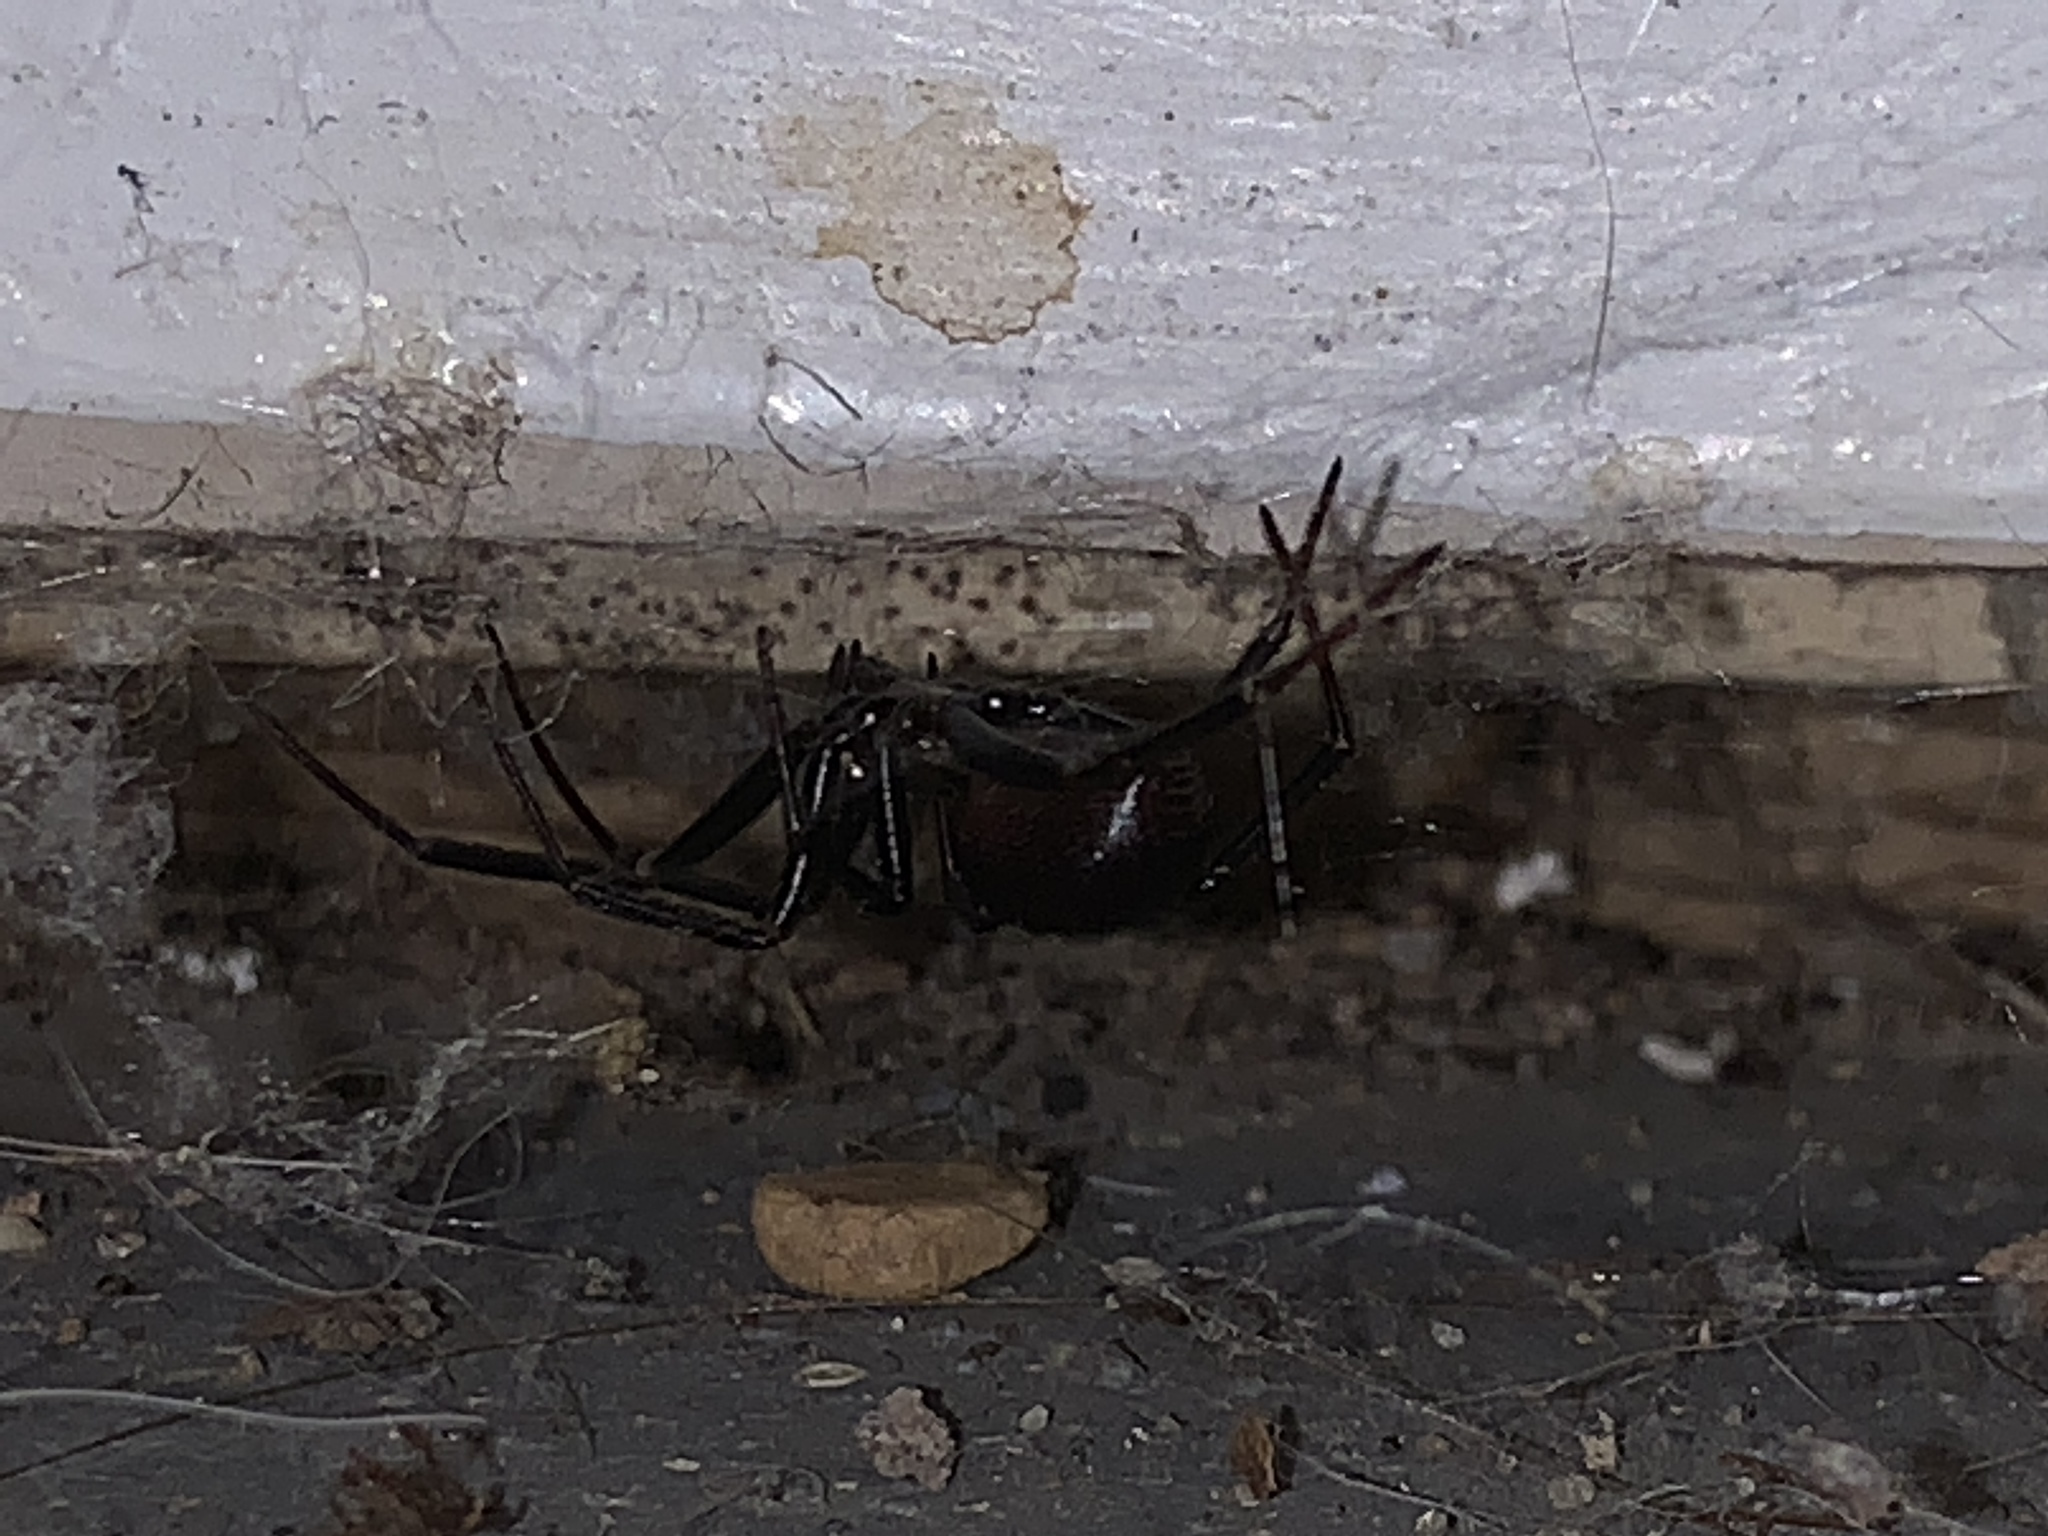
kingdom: Animalia
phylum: Arthropoda
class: Arachnida
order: Araneae
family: Theridiidae
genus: Steatoda
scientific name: Steatoda grossa
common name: False black widow
